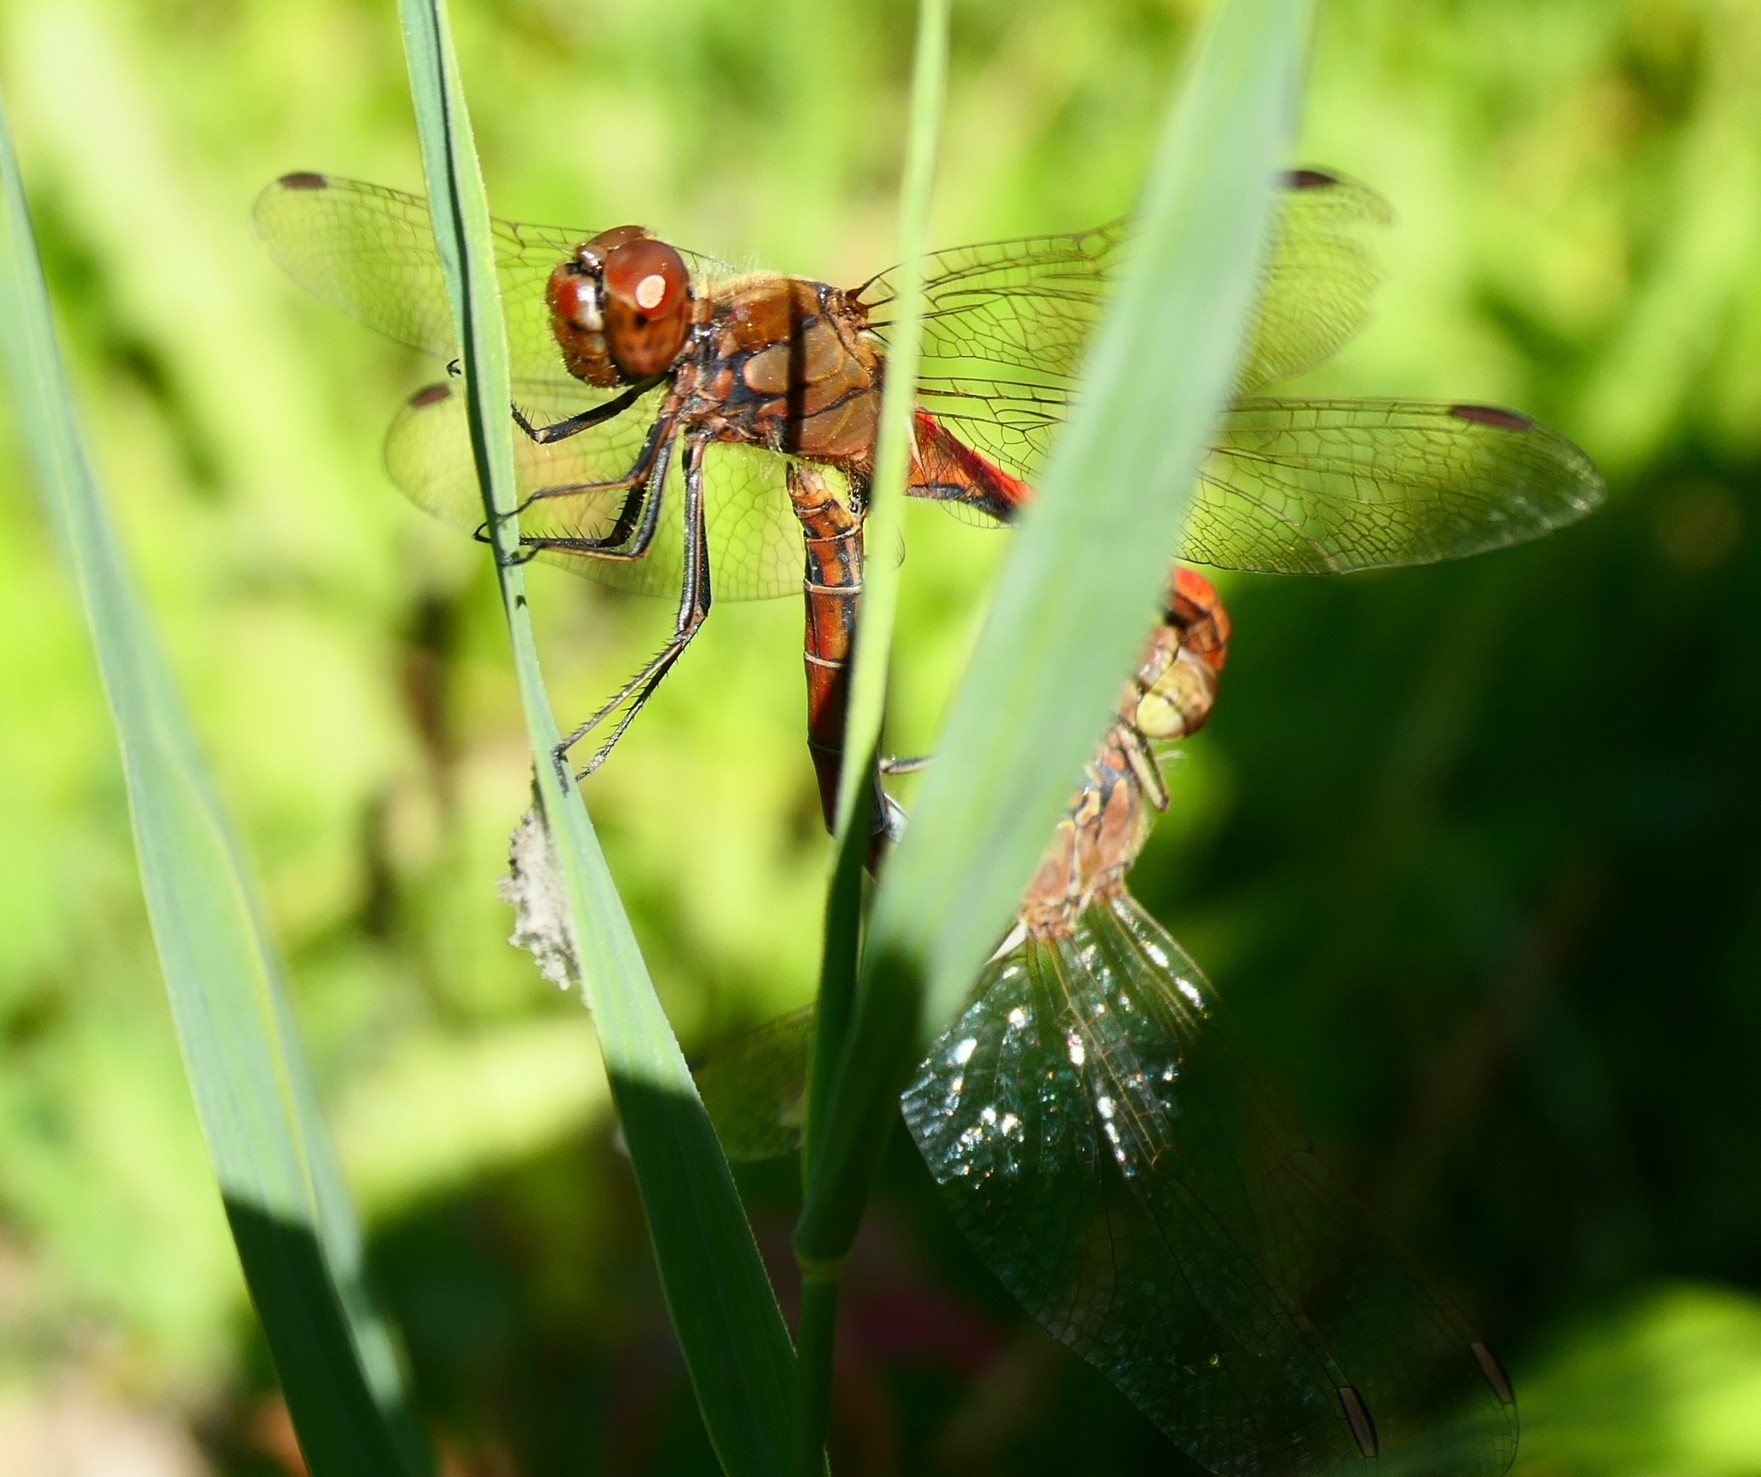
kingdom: Animalia
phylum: Arthropoda
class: Insecta
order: Odonata
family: Libellulidae
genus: Sympetrum
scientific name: Sympetrum vulgatum
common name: Vagrant darter
